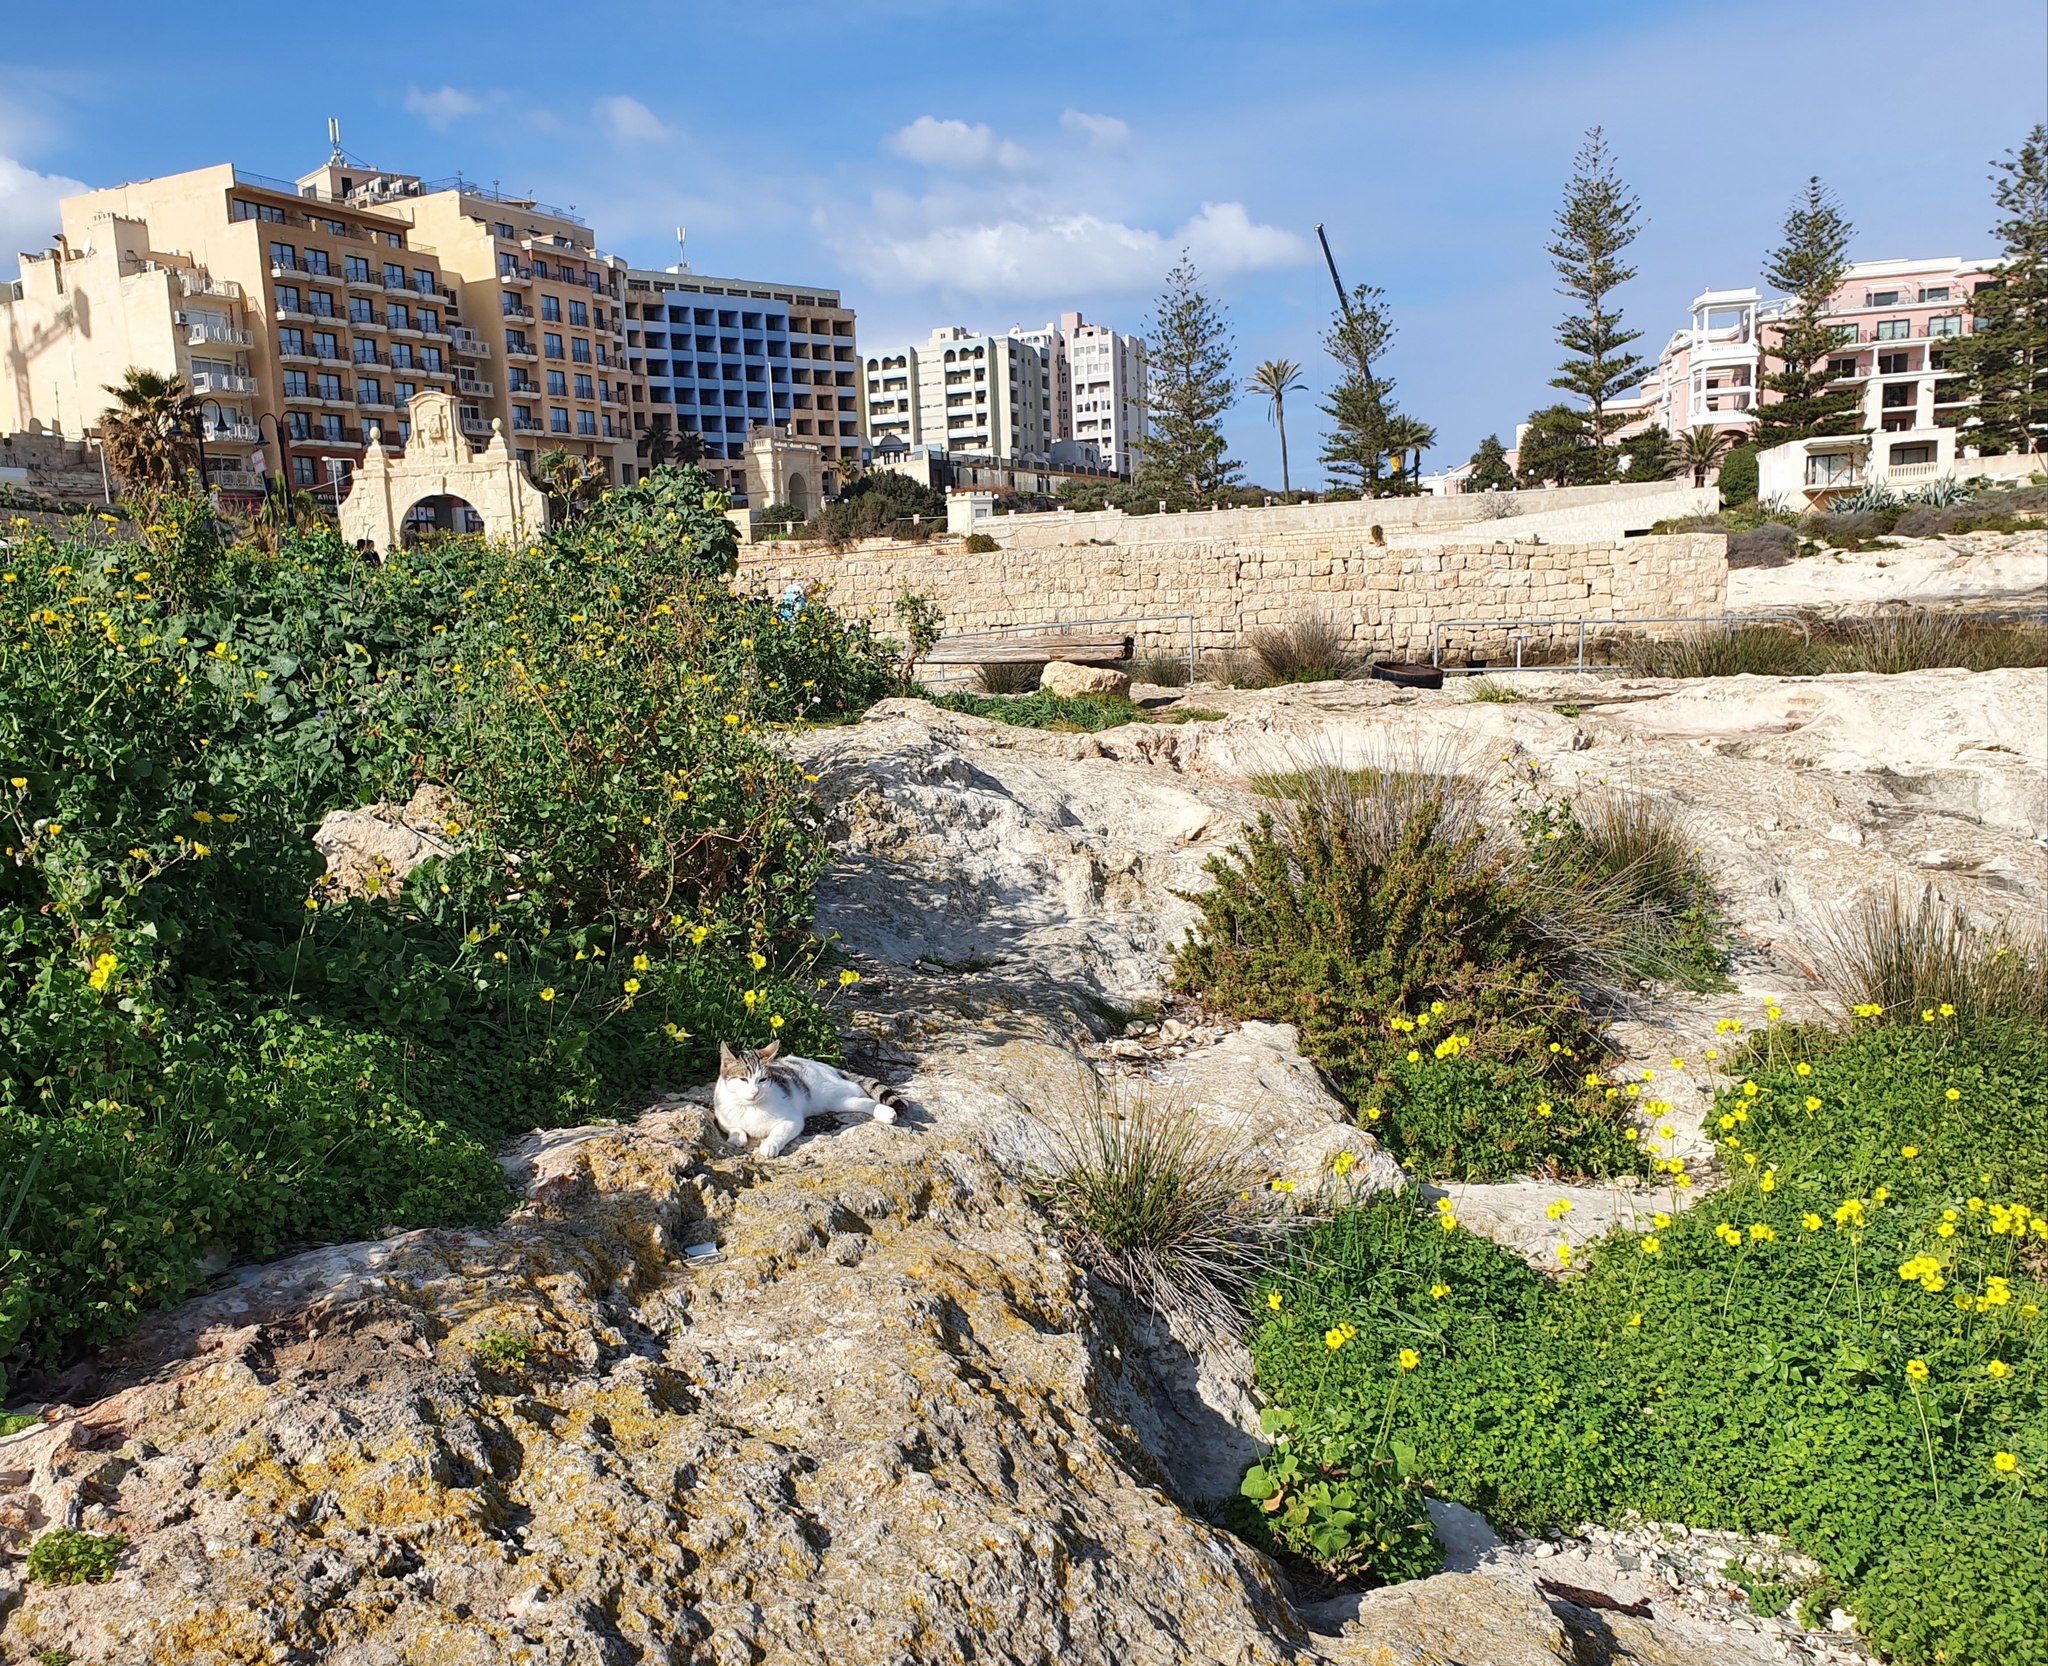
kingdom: Plantae
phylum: Tracheophyta
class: Magnoliopsida
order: Oxalidales
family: Oxalidaceae
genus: Oxalis
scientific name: Oxalis pes-caprae
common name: Bermuda-buttercup
